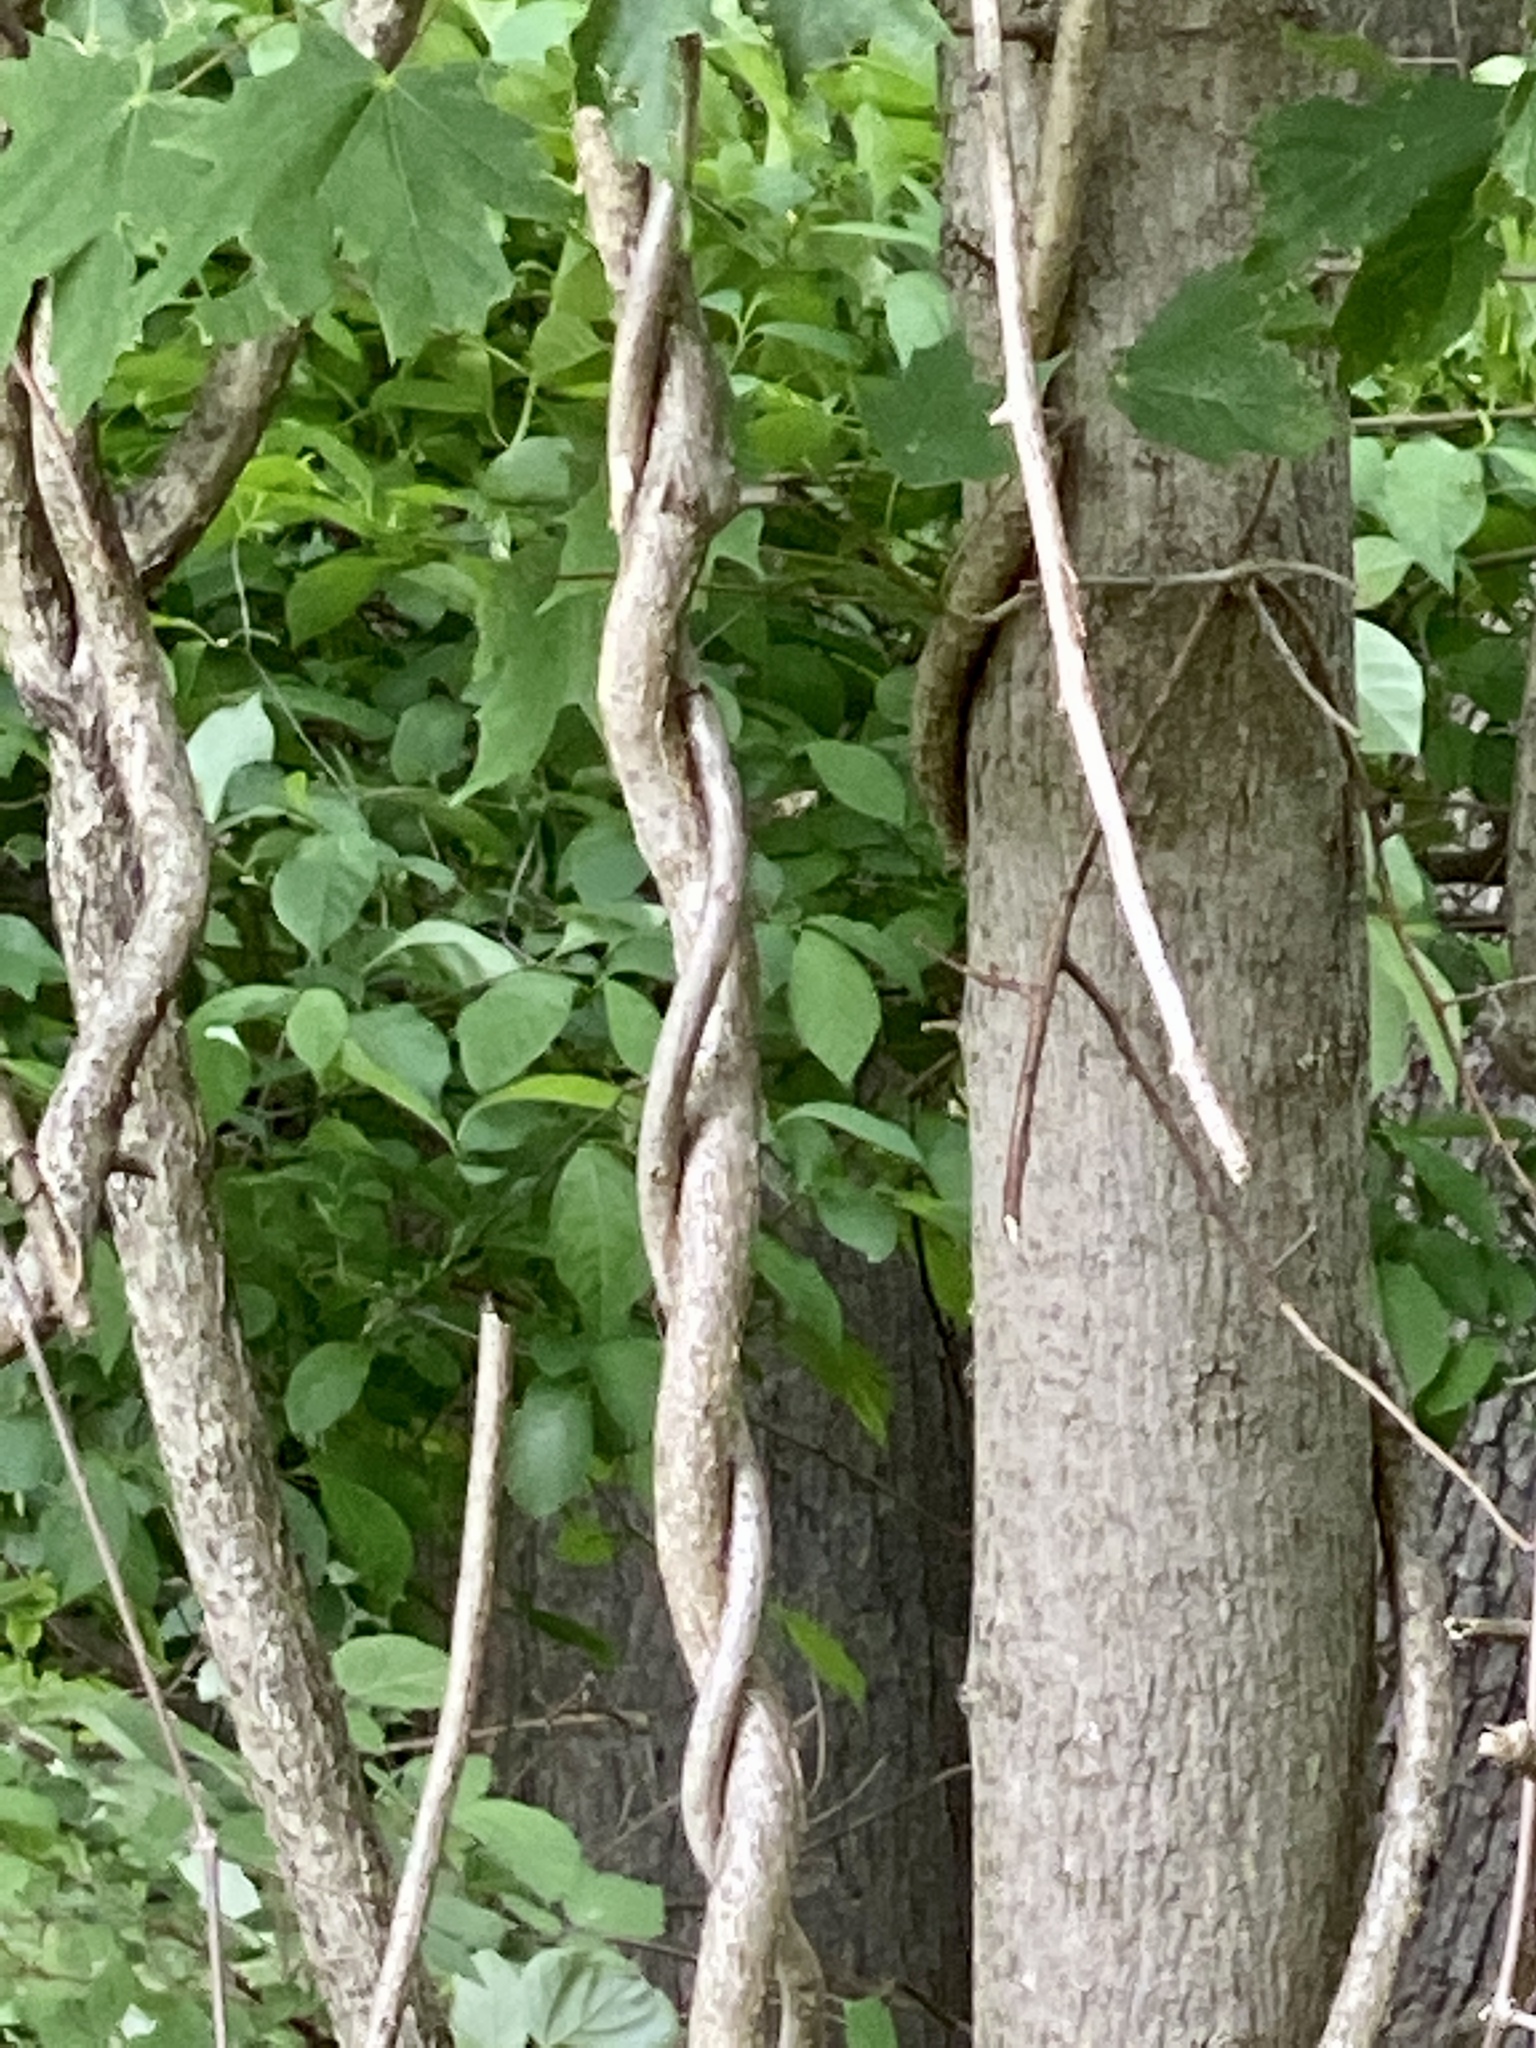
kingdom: Plantae
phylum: Tracheophyta
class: Magnoliopsida
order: Celastrales
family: Celastraceae
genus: Celastrus
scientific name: Celastrus orbiculatus
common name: Oriental bittersweet
